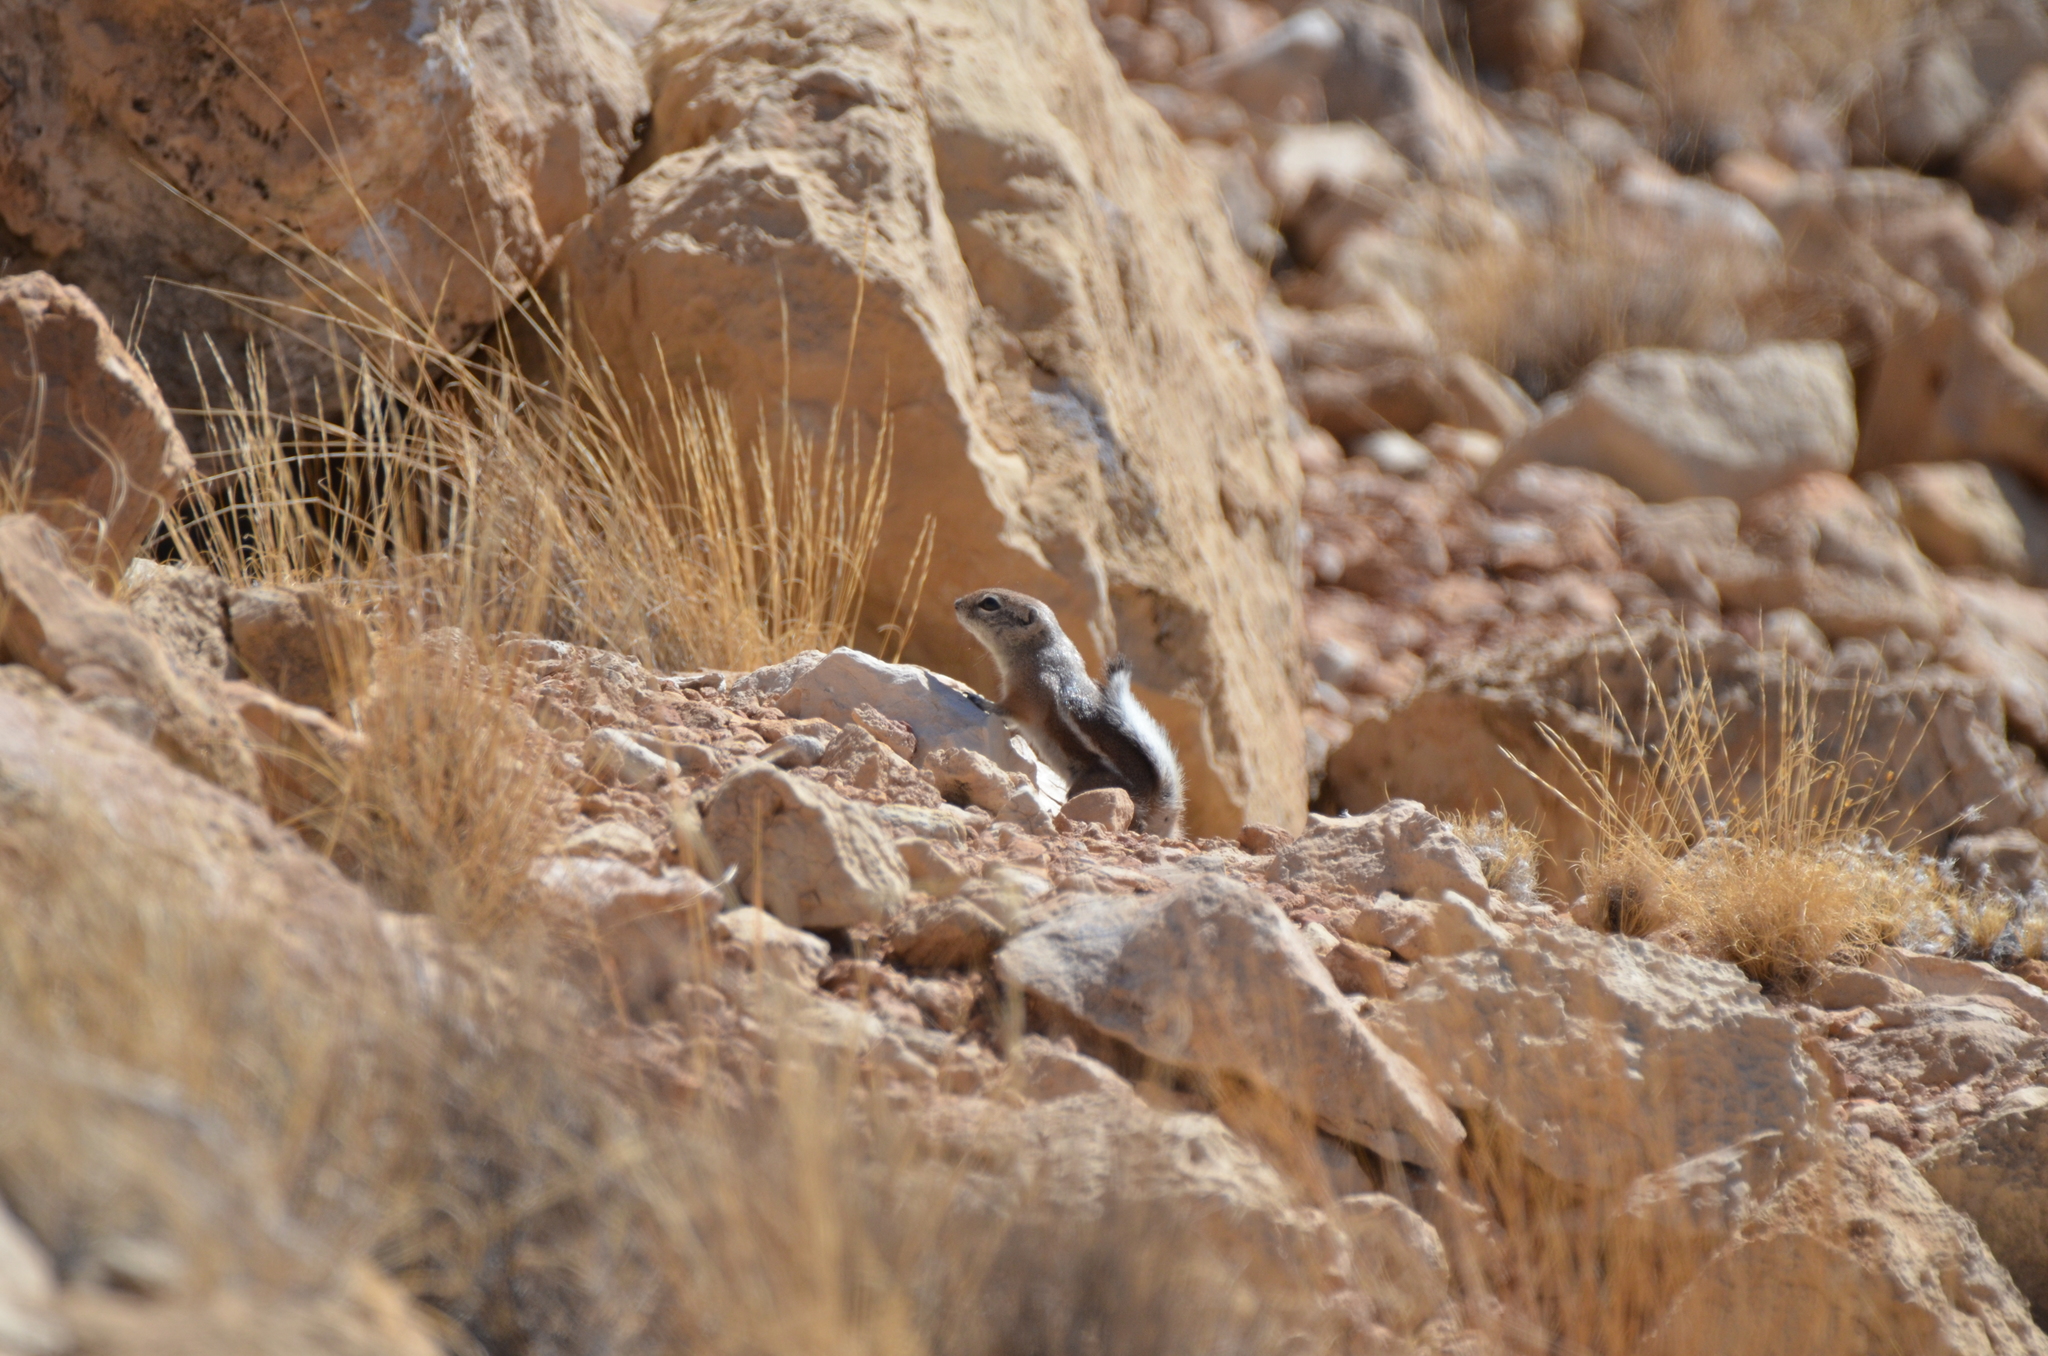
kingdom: Animalia
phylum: Chordata
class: Mammalia
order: Rodentia
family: Sciuridae
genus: Ammospermophilus
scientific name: Ammospermophilus leucurus
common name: White-tailed antelope squirrel
